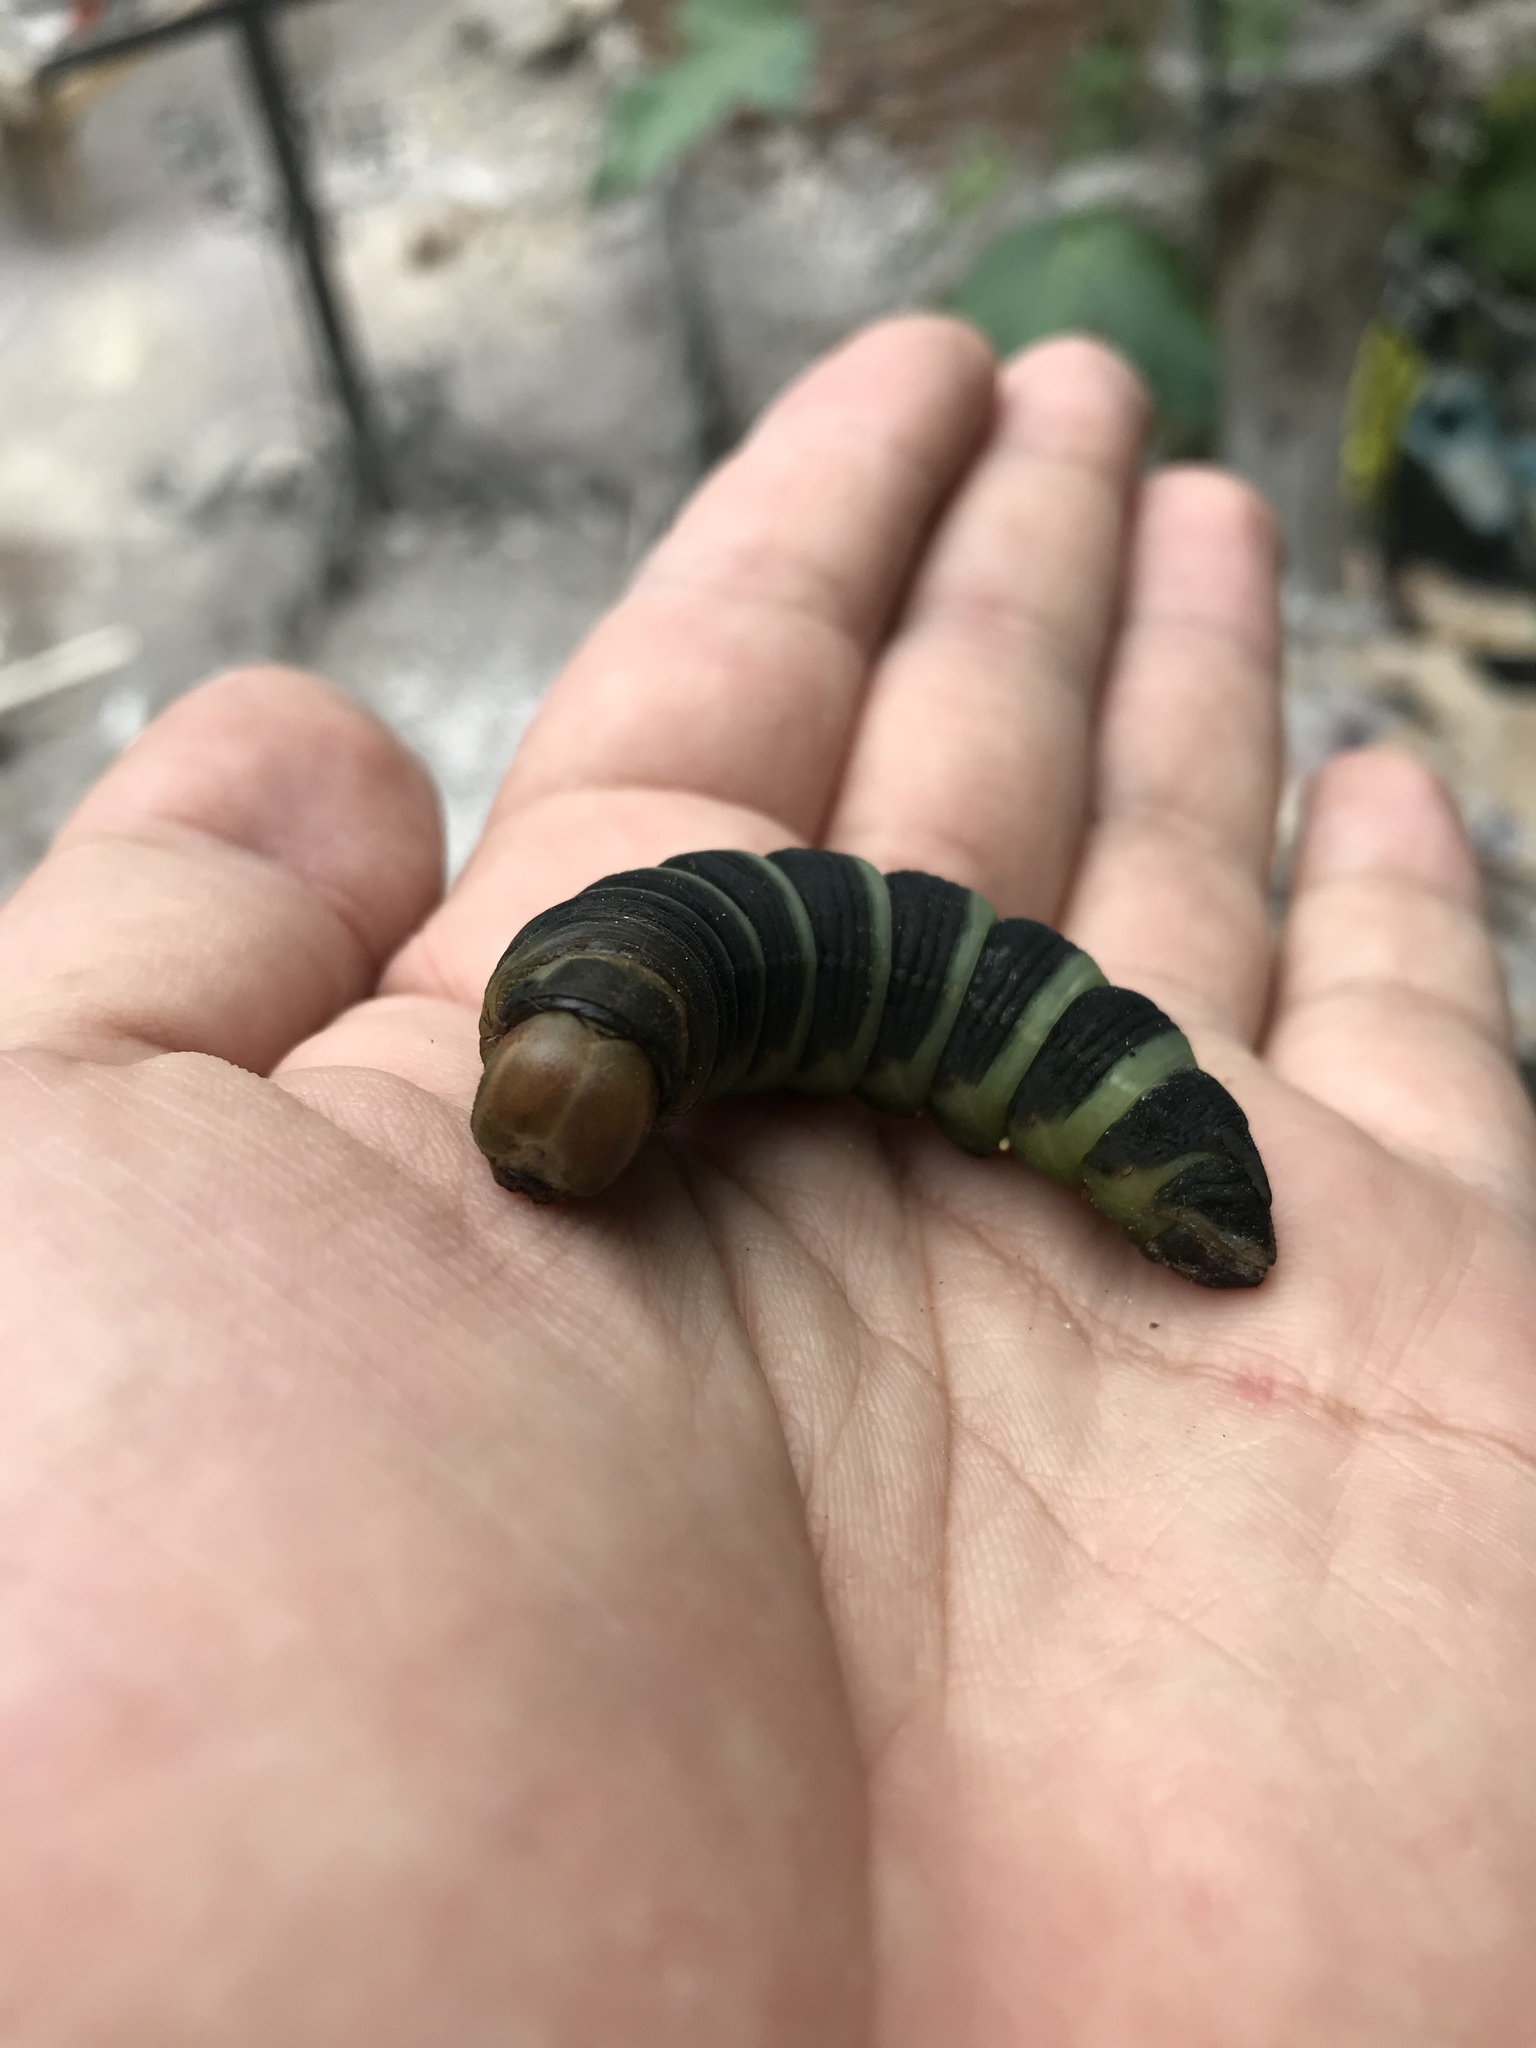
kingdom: Animalia
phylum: Arthropoda
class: Insecta
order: Lepidoptera
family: Sphingidae
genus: Pachylia
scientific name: Pachylia syces
